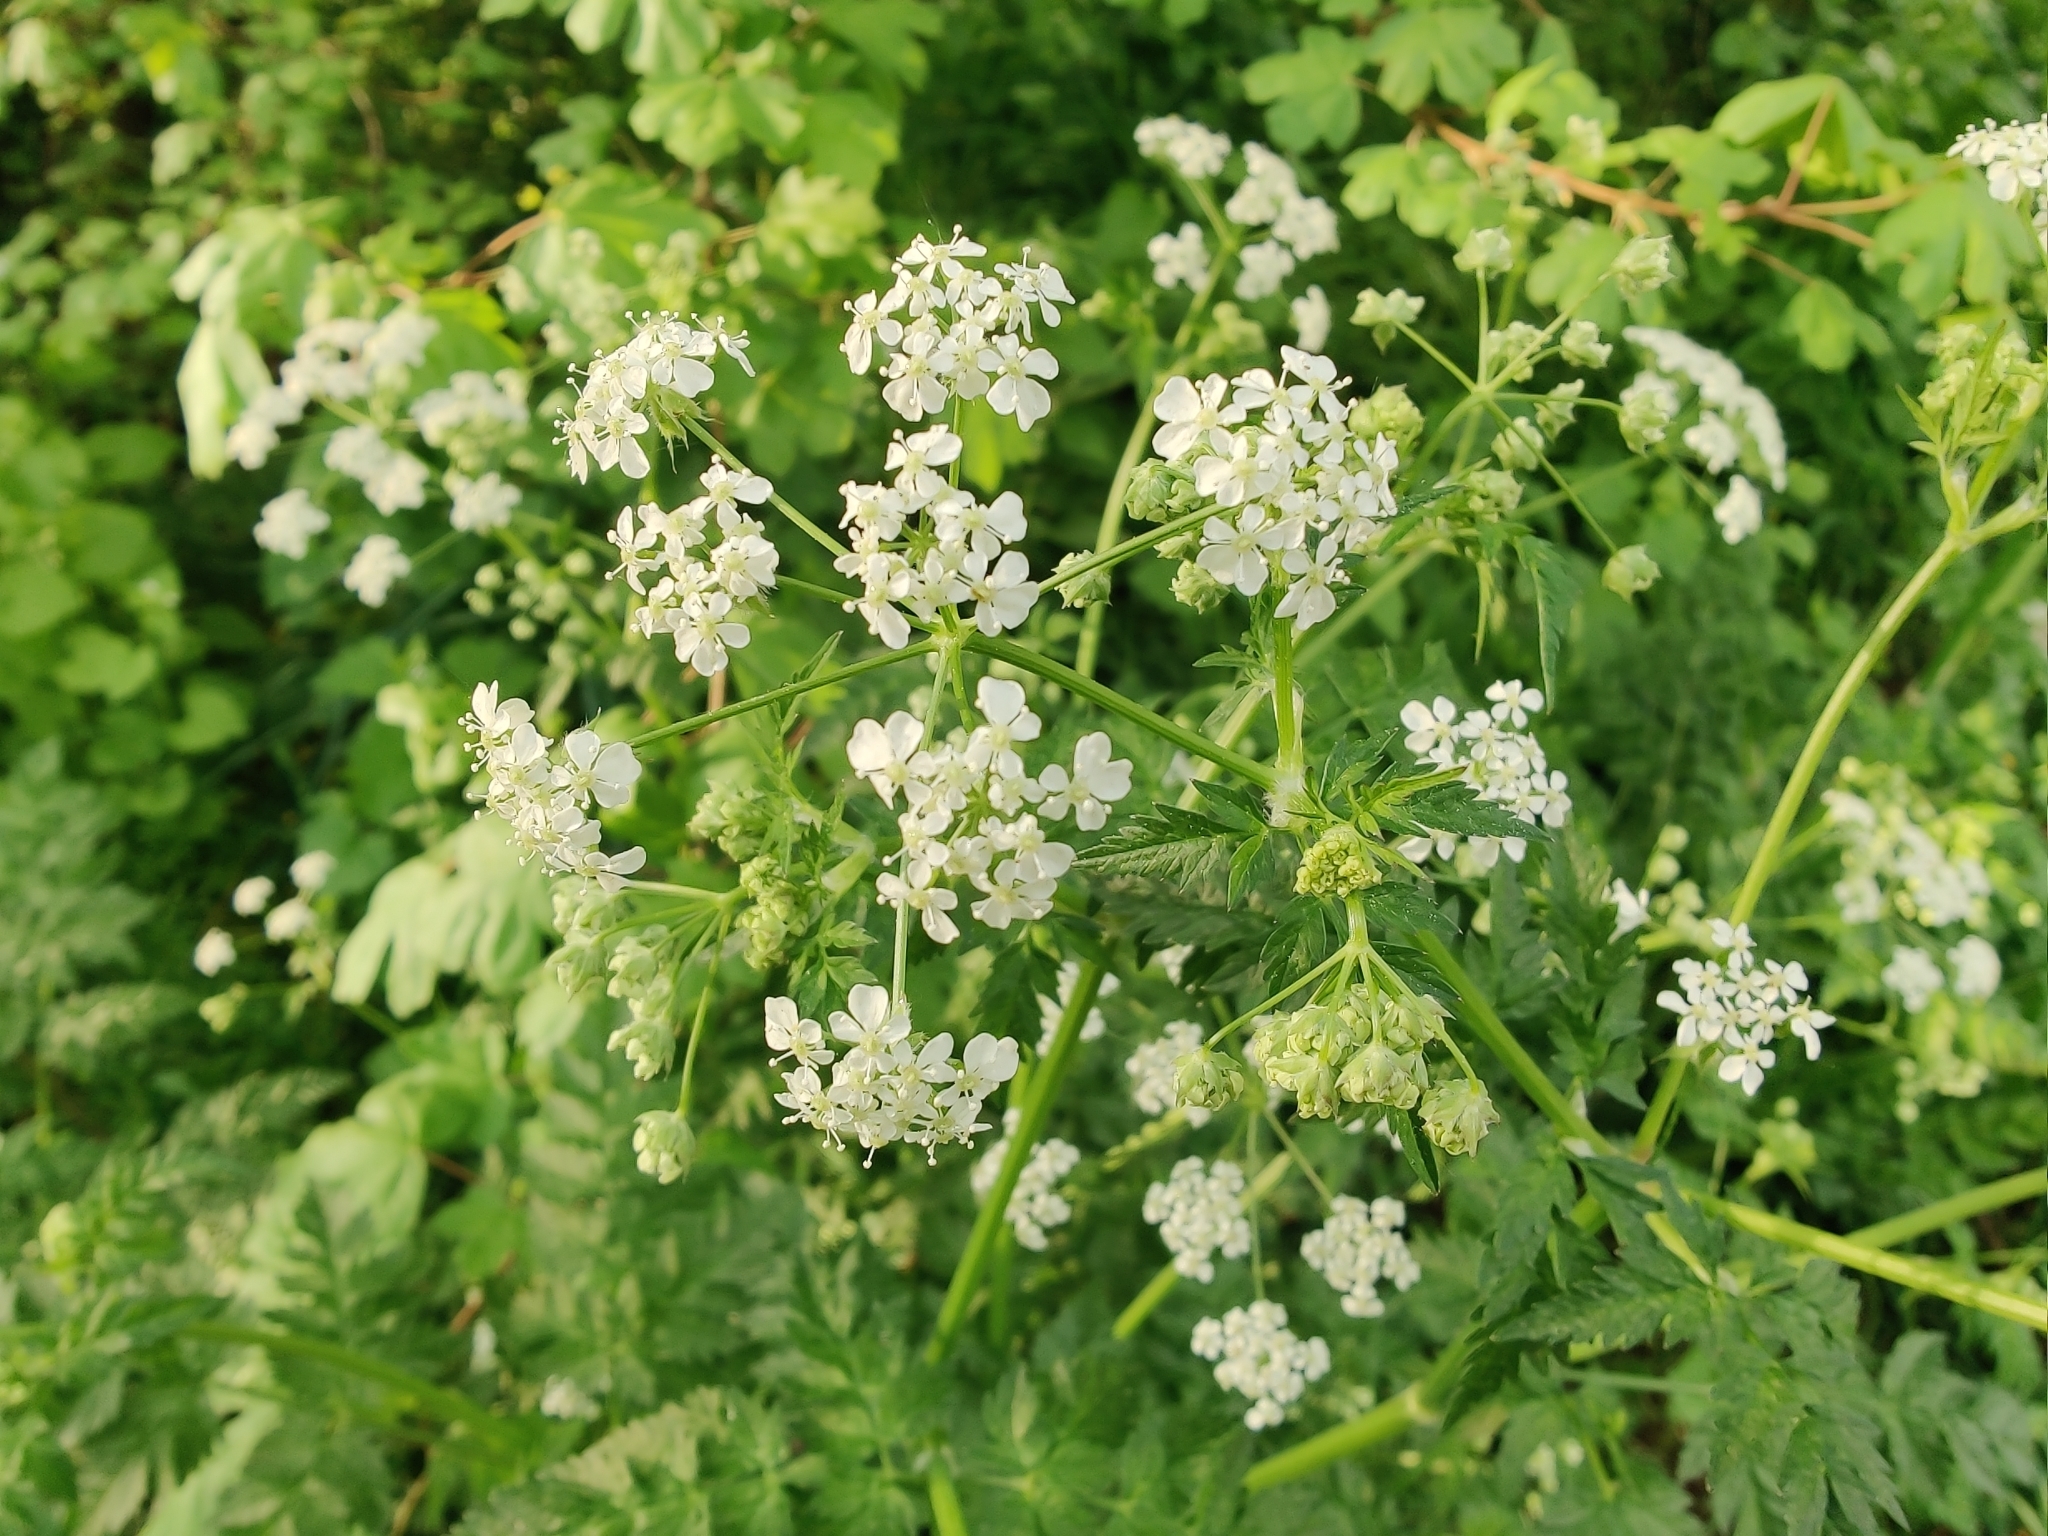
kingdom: Plantae
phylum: Tracheophyta
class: Magnoliopsida
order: Apiales
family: Apiaceae
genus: Anthriscus
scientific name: Anthriscus sylvestris
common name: Cow parsley
